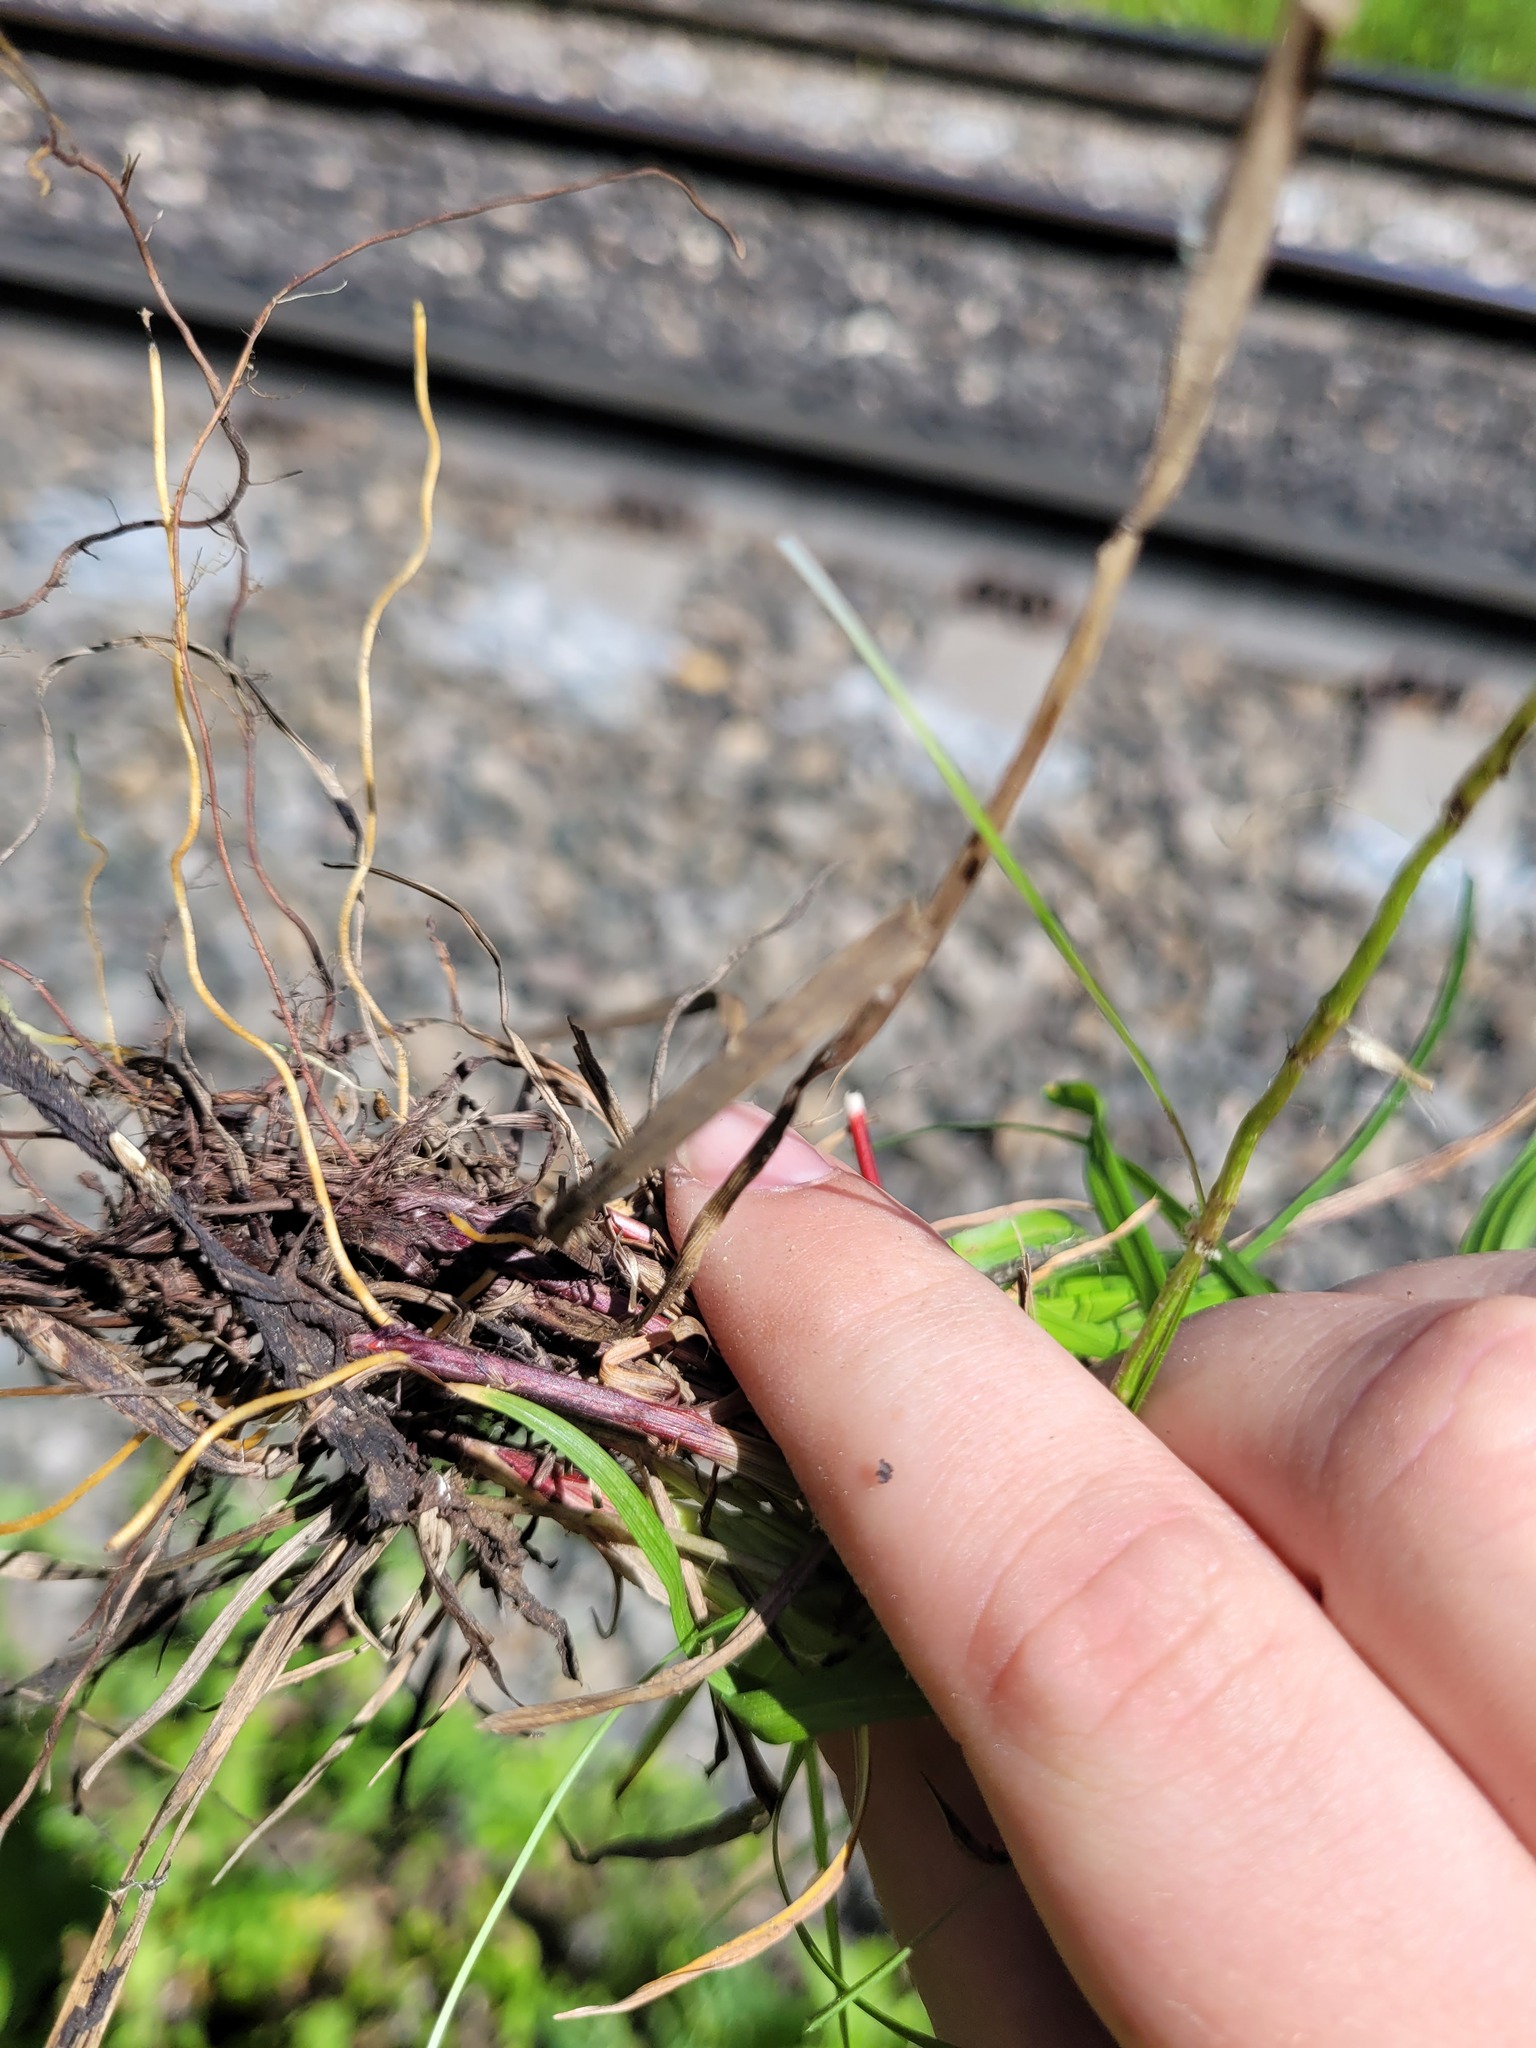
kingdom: Plantae
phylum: Tracheophyta
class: Liliopsida
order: Poales
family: Cyperaceae
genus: Carex
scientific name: Carex digitata
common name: Fingered sedge
